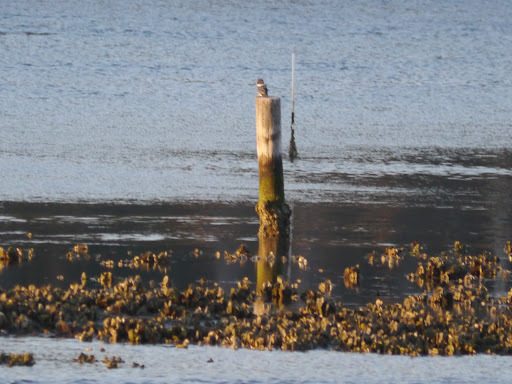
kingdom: Animalia
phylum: Chordata
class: Aves
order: Coraciiformes
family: Alcedinidae
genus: Megaceryle
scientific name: Megaceryle alcyon
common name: Belted kingfisher
